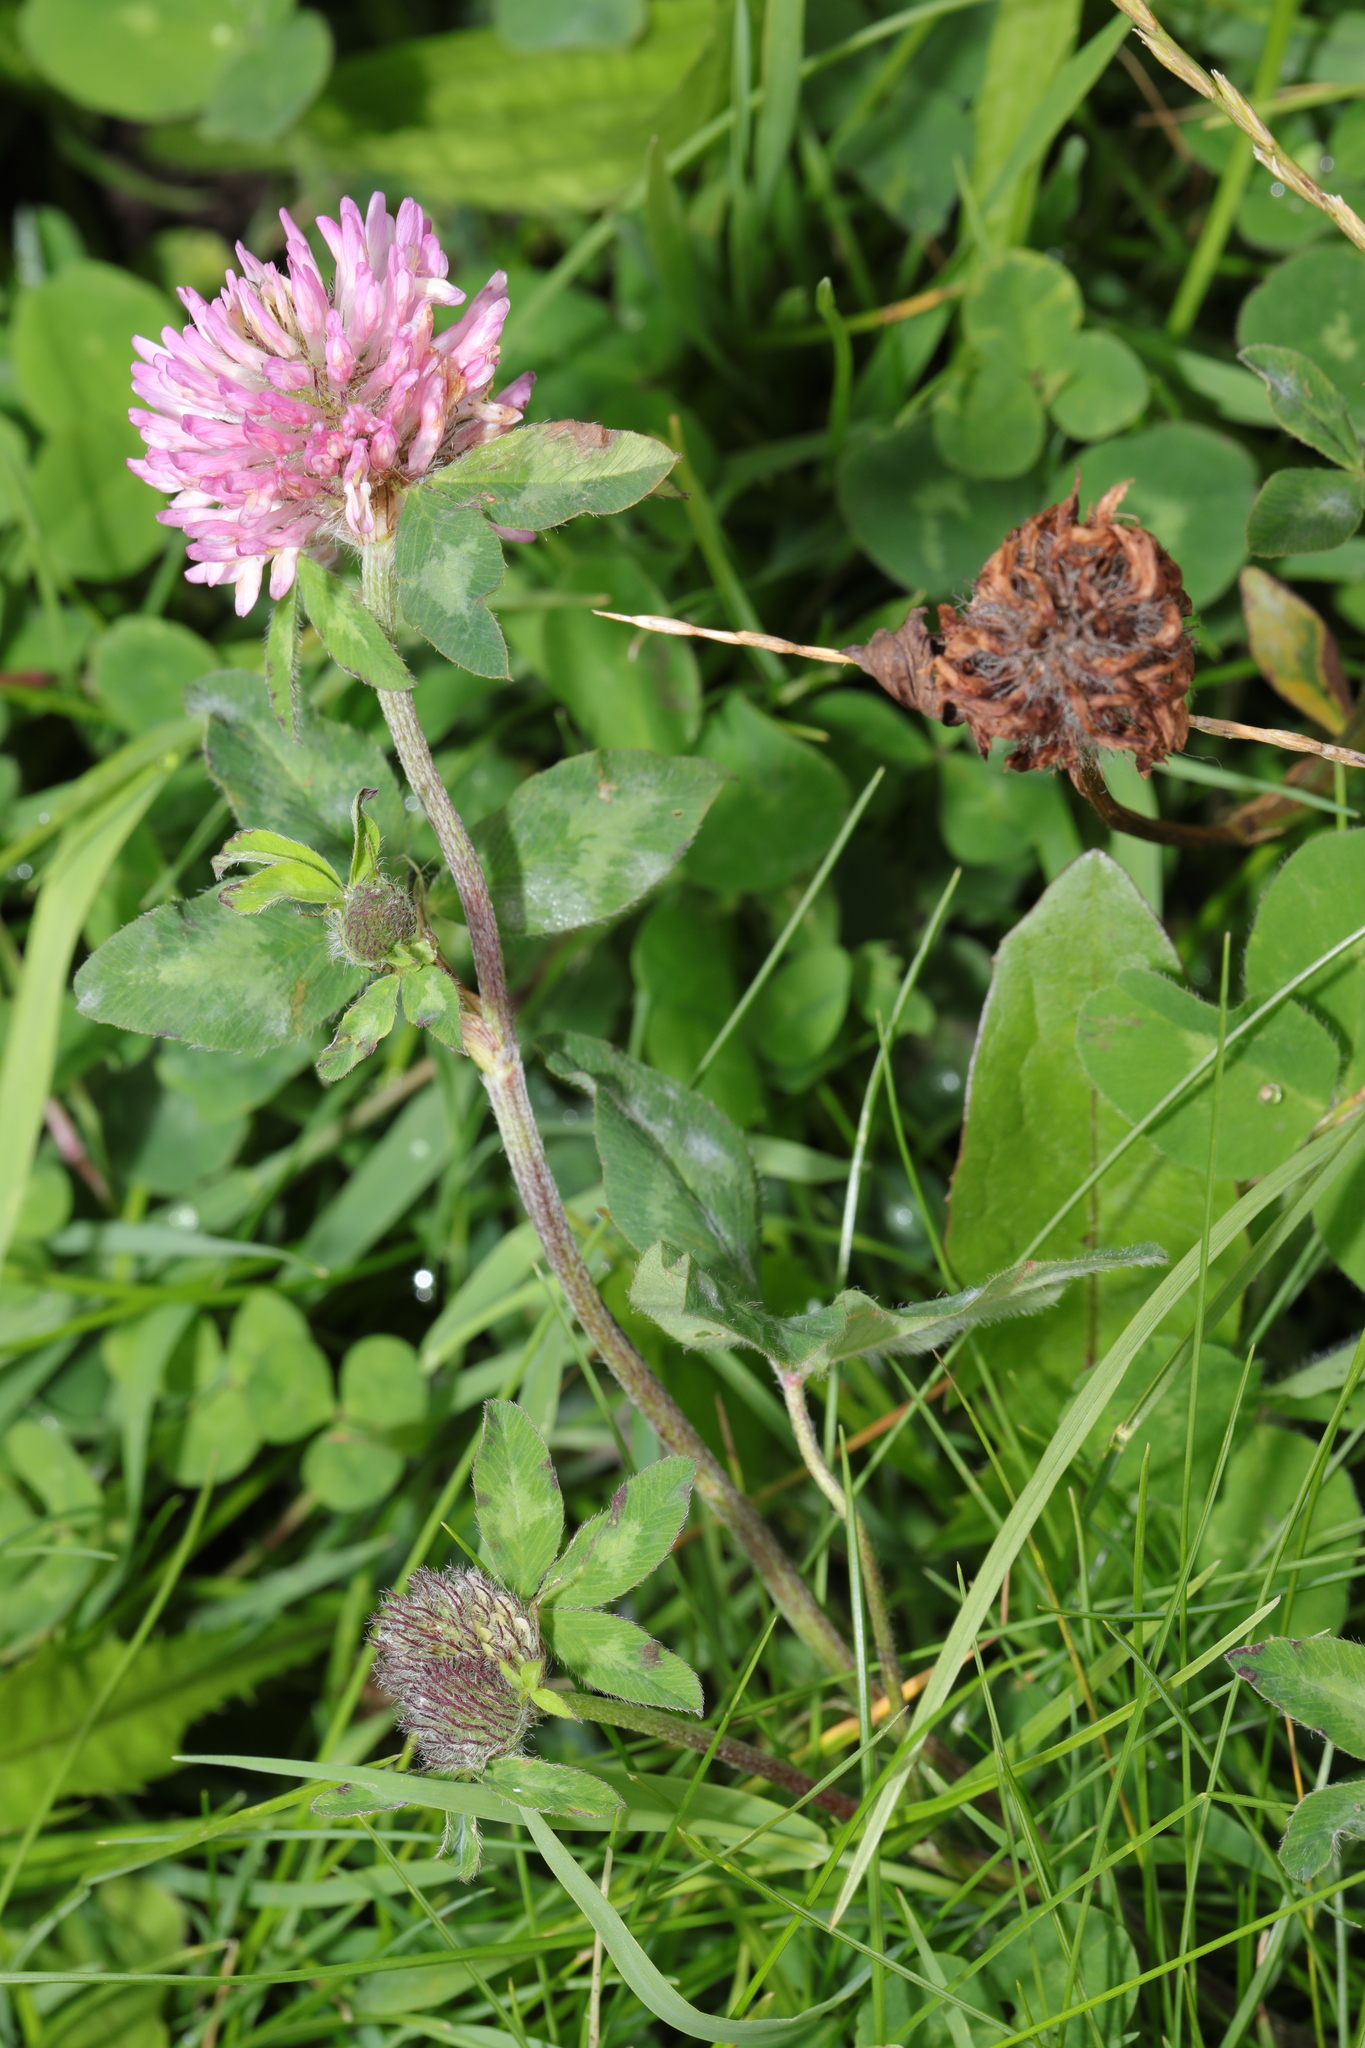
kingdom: Plantae
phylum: Tracheophyta
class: Magnoliopsida
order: Fabales
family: Fabaceae
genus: Trifolium
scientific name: Trifolium pratense
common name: Red clover
